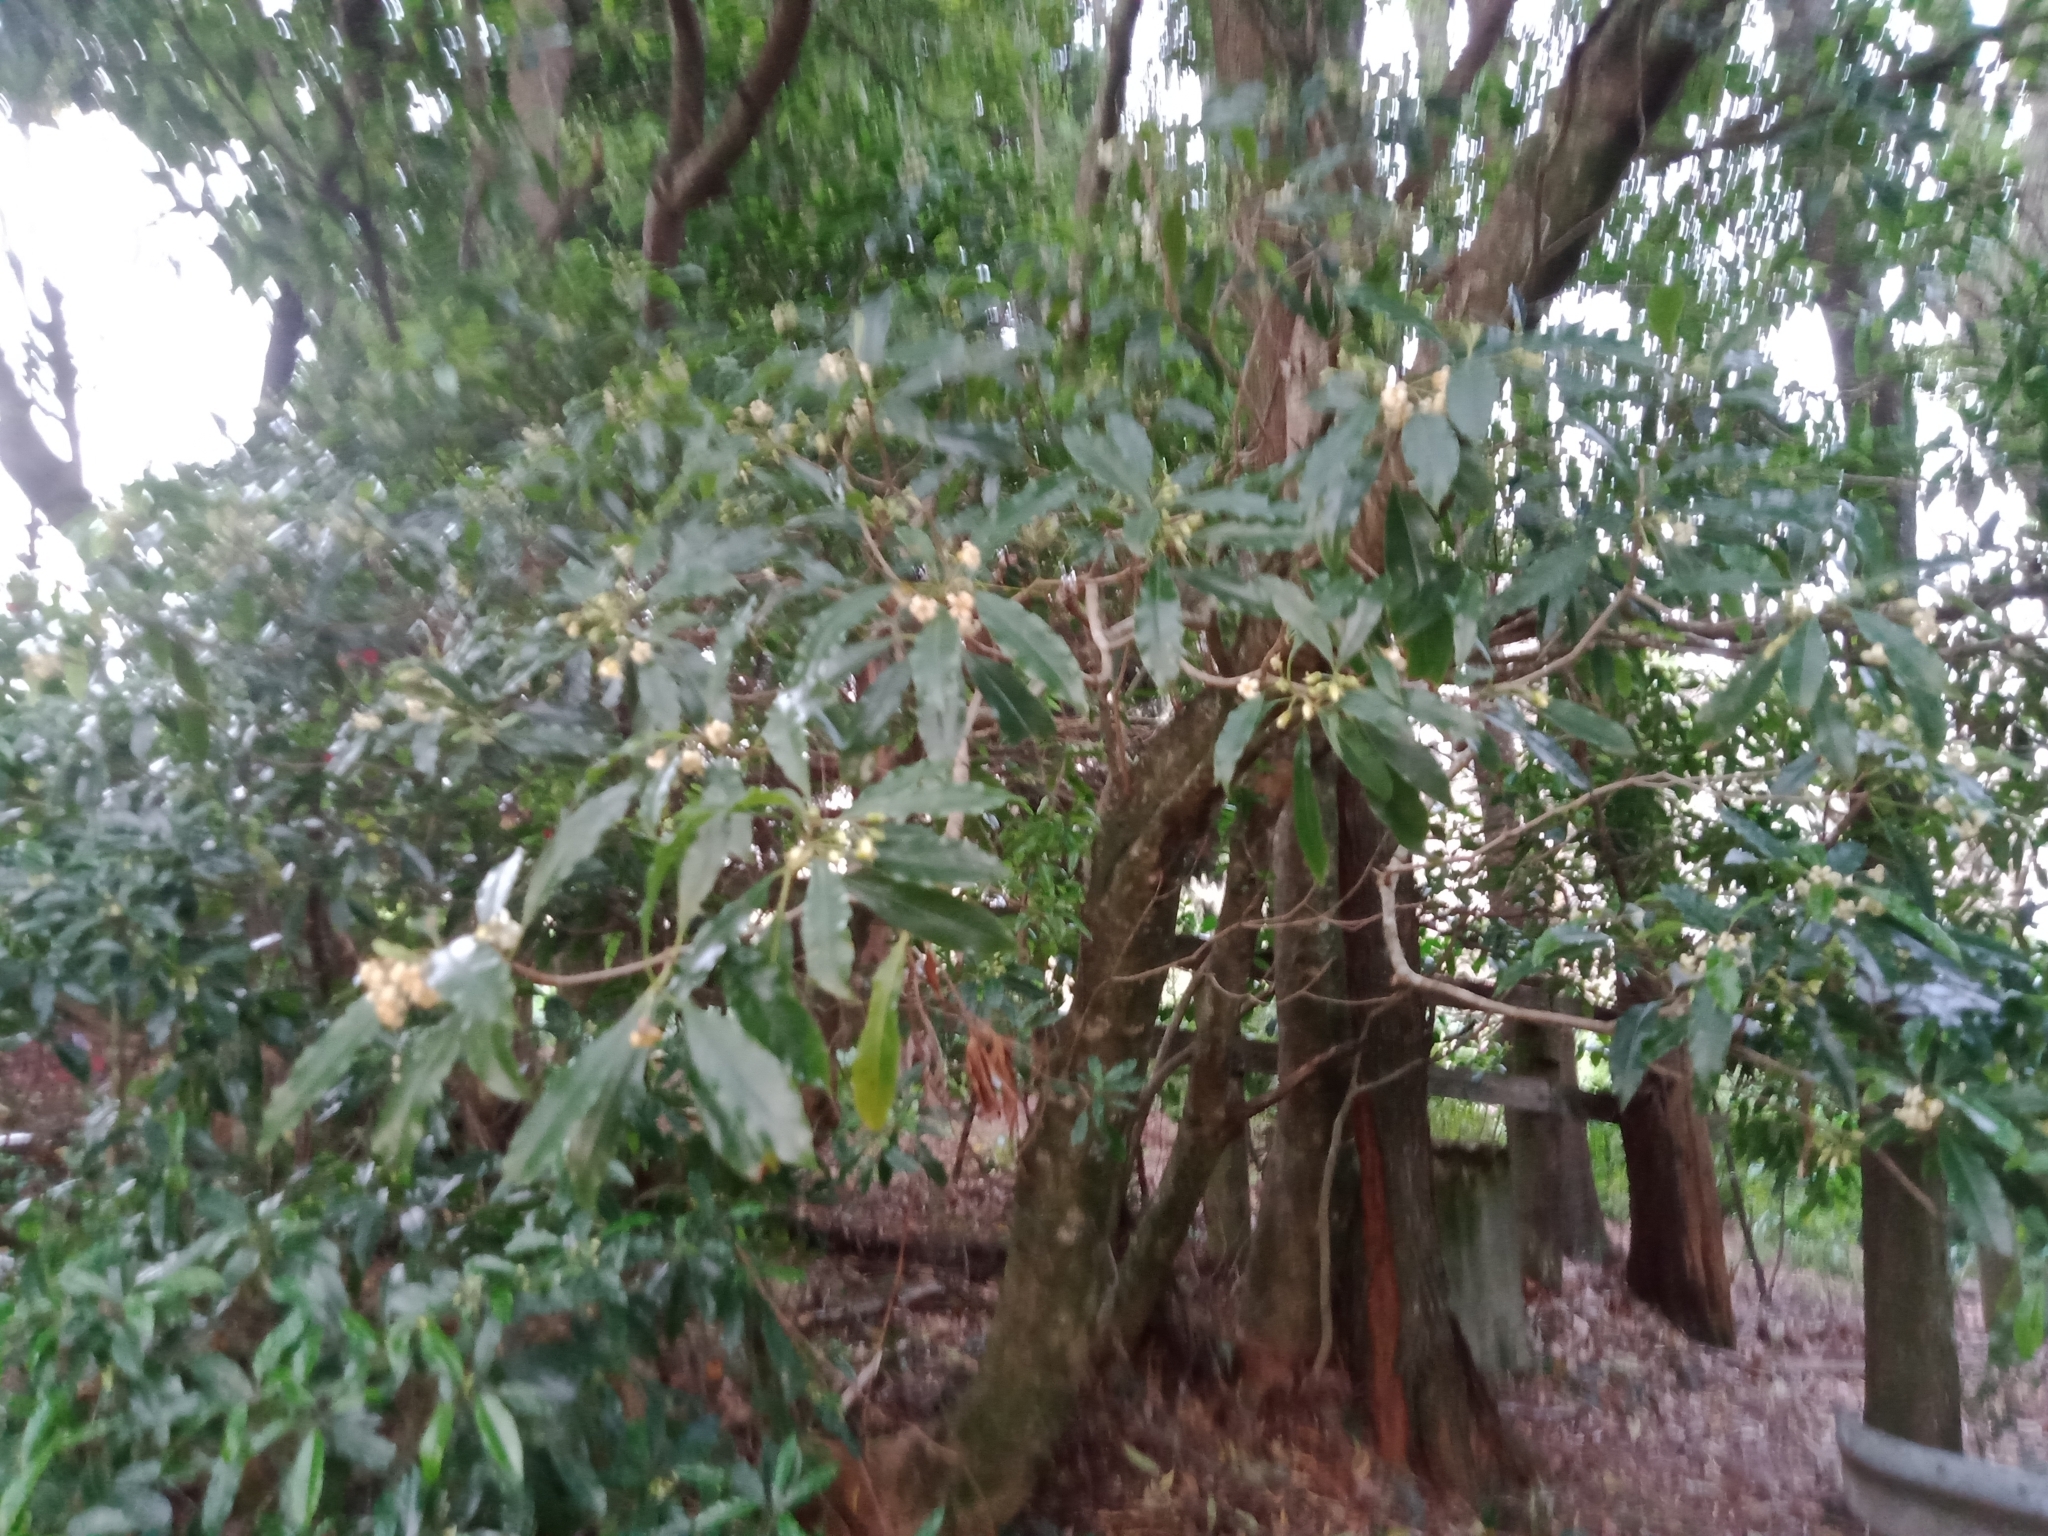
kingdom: Plantae
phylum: Tracheophyta
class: Magnoliopsida
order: Apiales
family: Pittosporaceae
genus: Pittosporum
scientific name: Pittosporum undulatum
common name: Australian cheesewood
